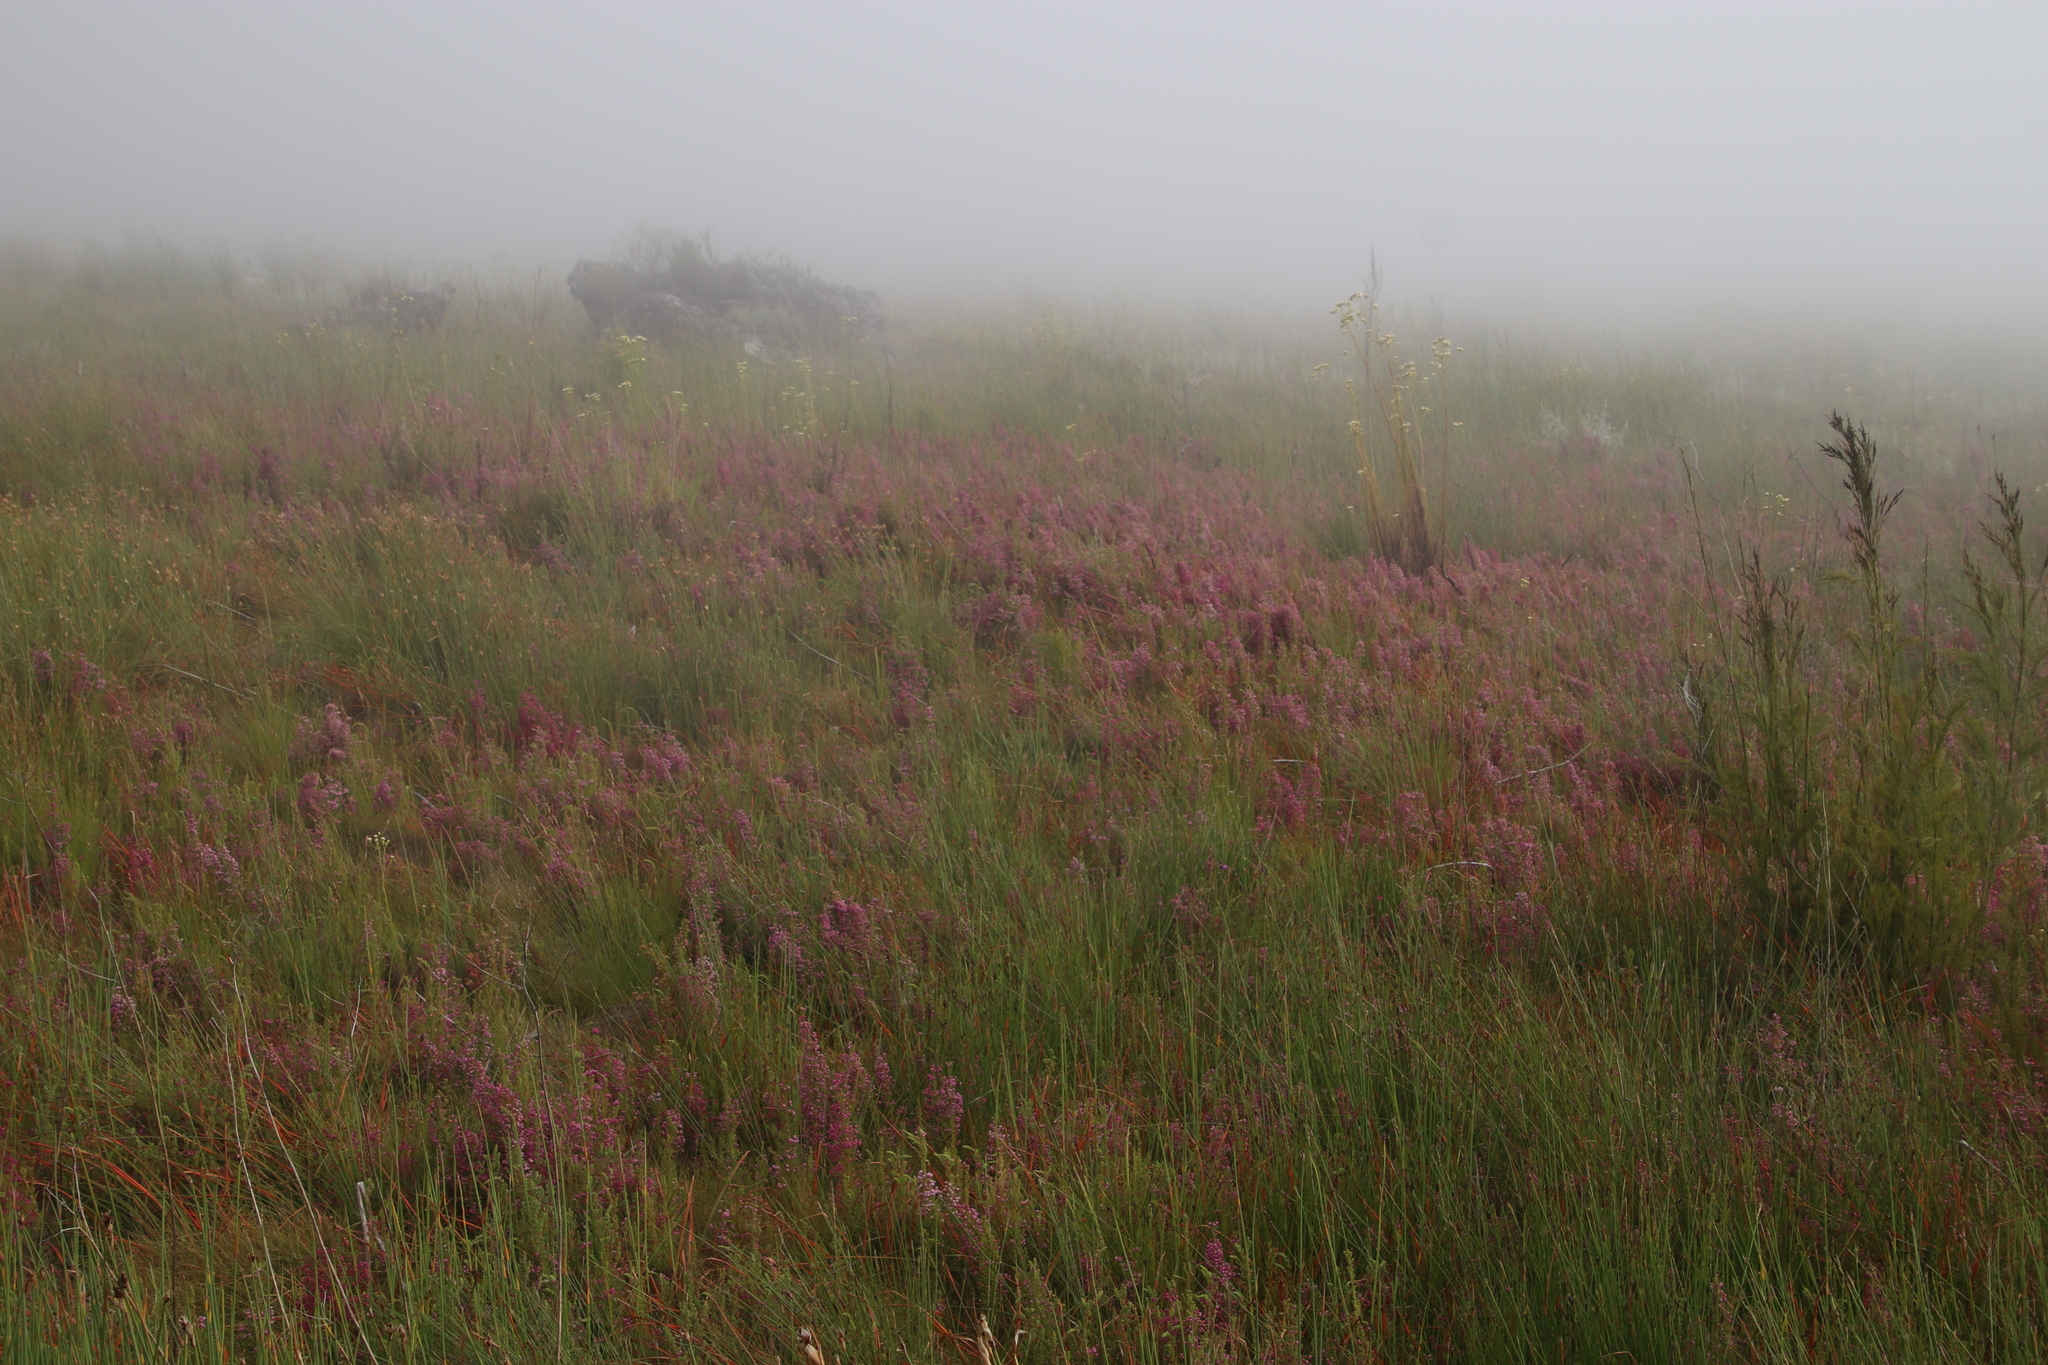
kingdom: Plantae
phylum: Tracheophyta
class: Magnoliopsida
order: Ericales
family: Ericaceae
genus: Erica
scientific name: Erica bergiana
